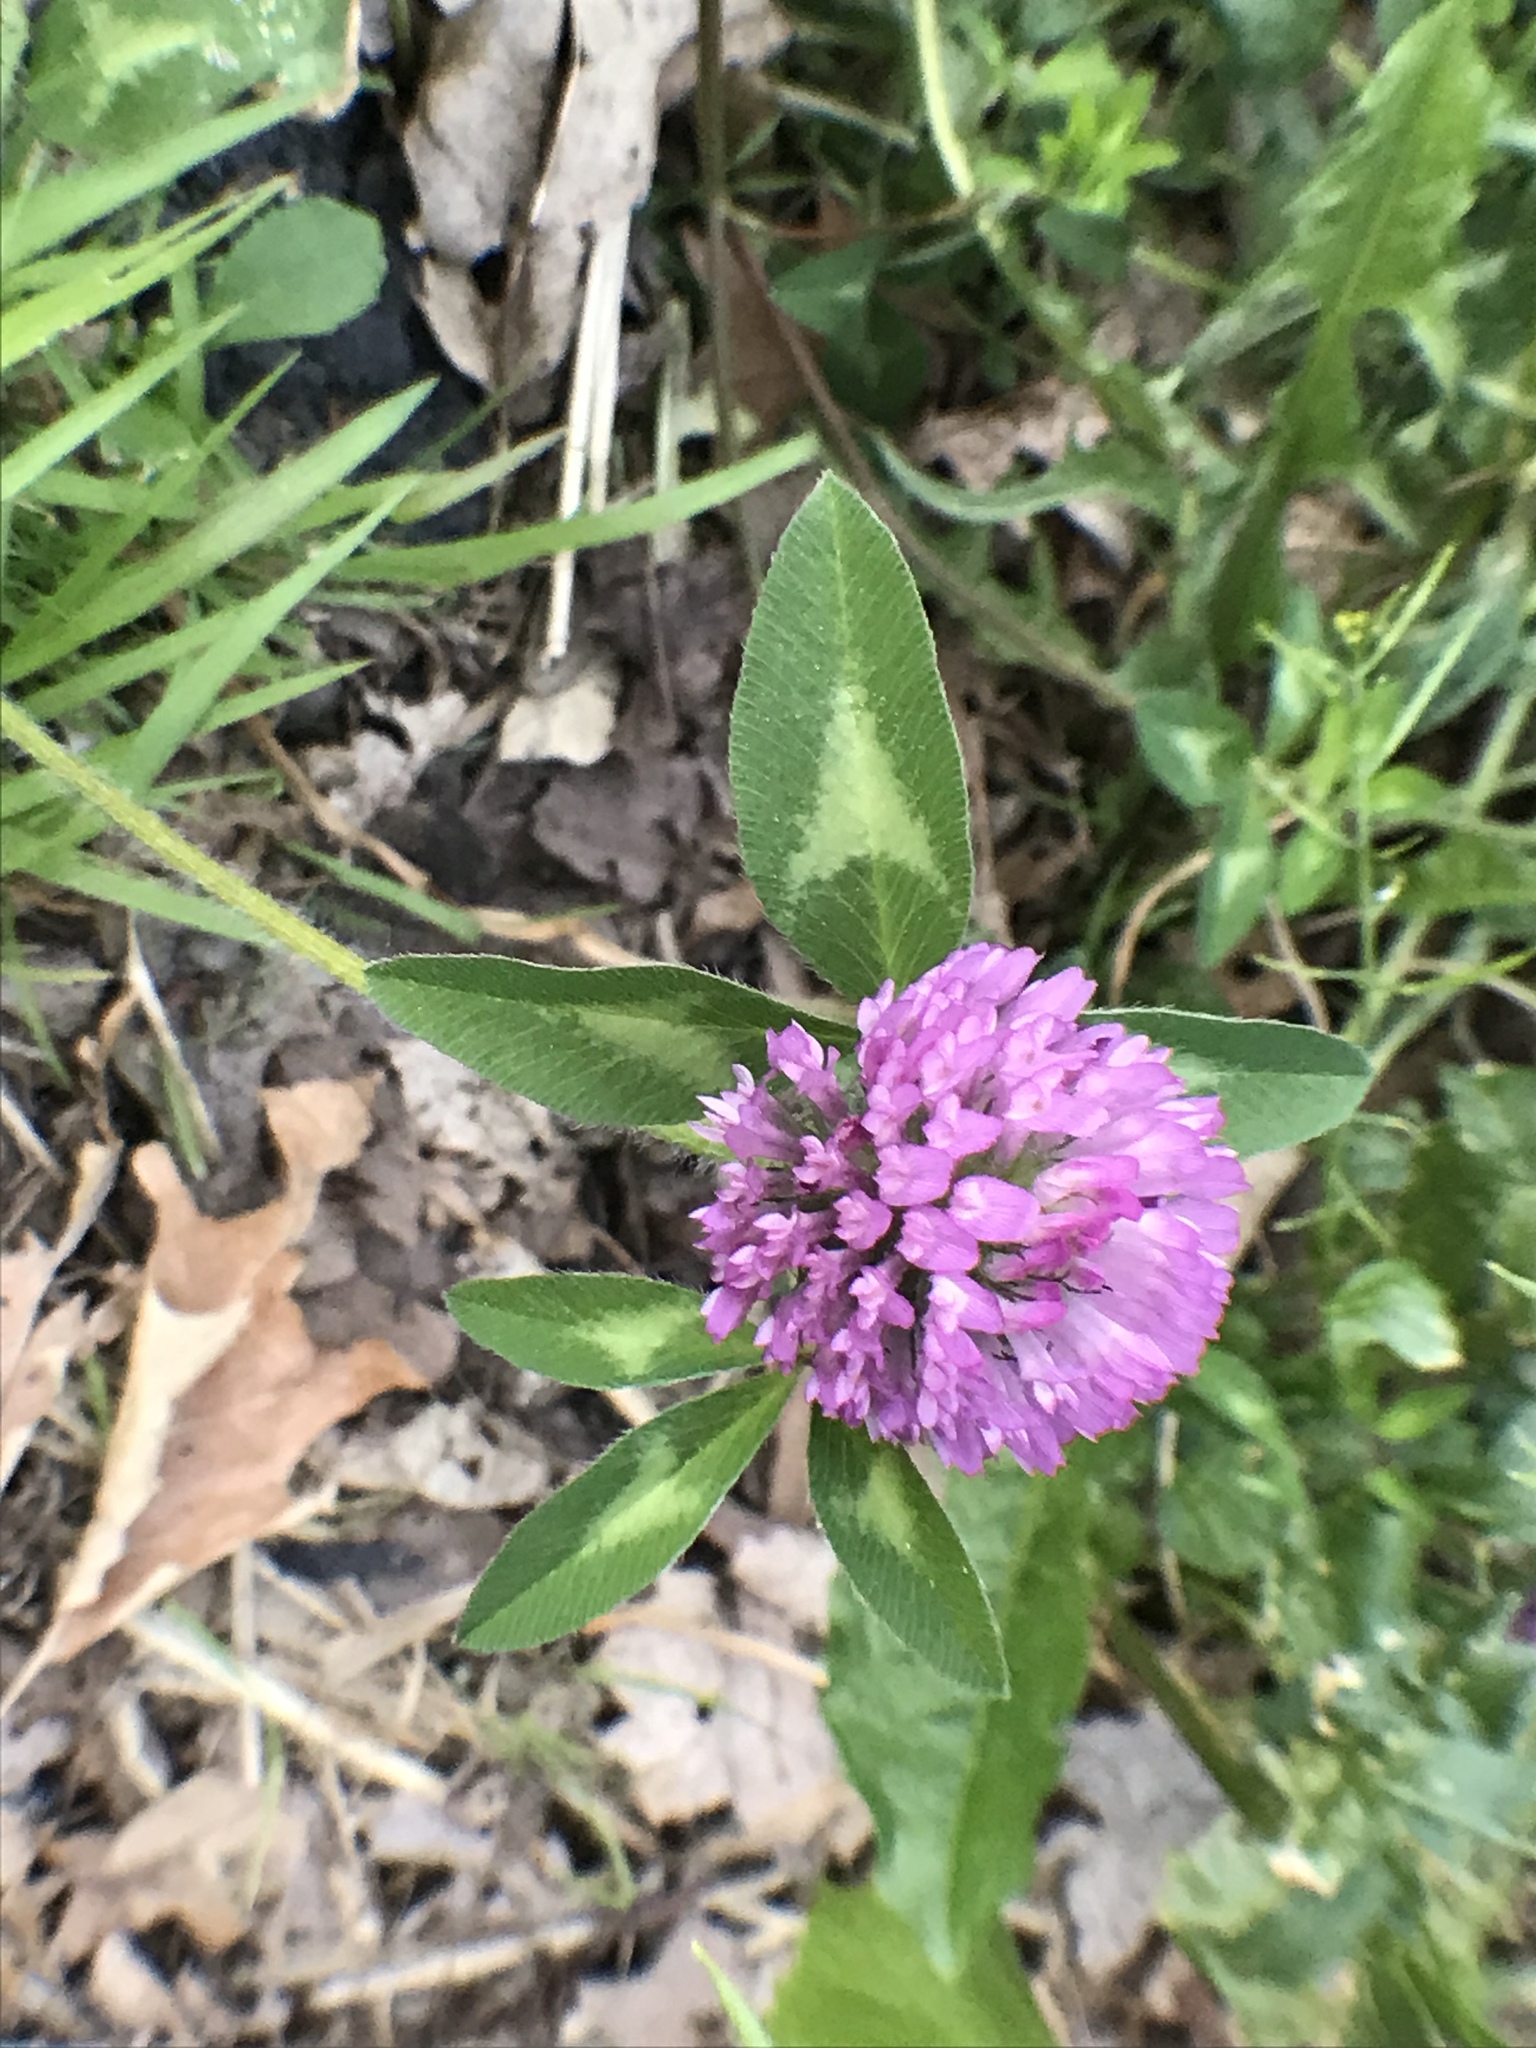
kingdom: Plantae
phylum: Tracheophyta
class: Magnoliopsida
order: Fabales
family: Fabaceae
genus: Trifolium
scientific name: Trifolium pratense
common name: Red clover
